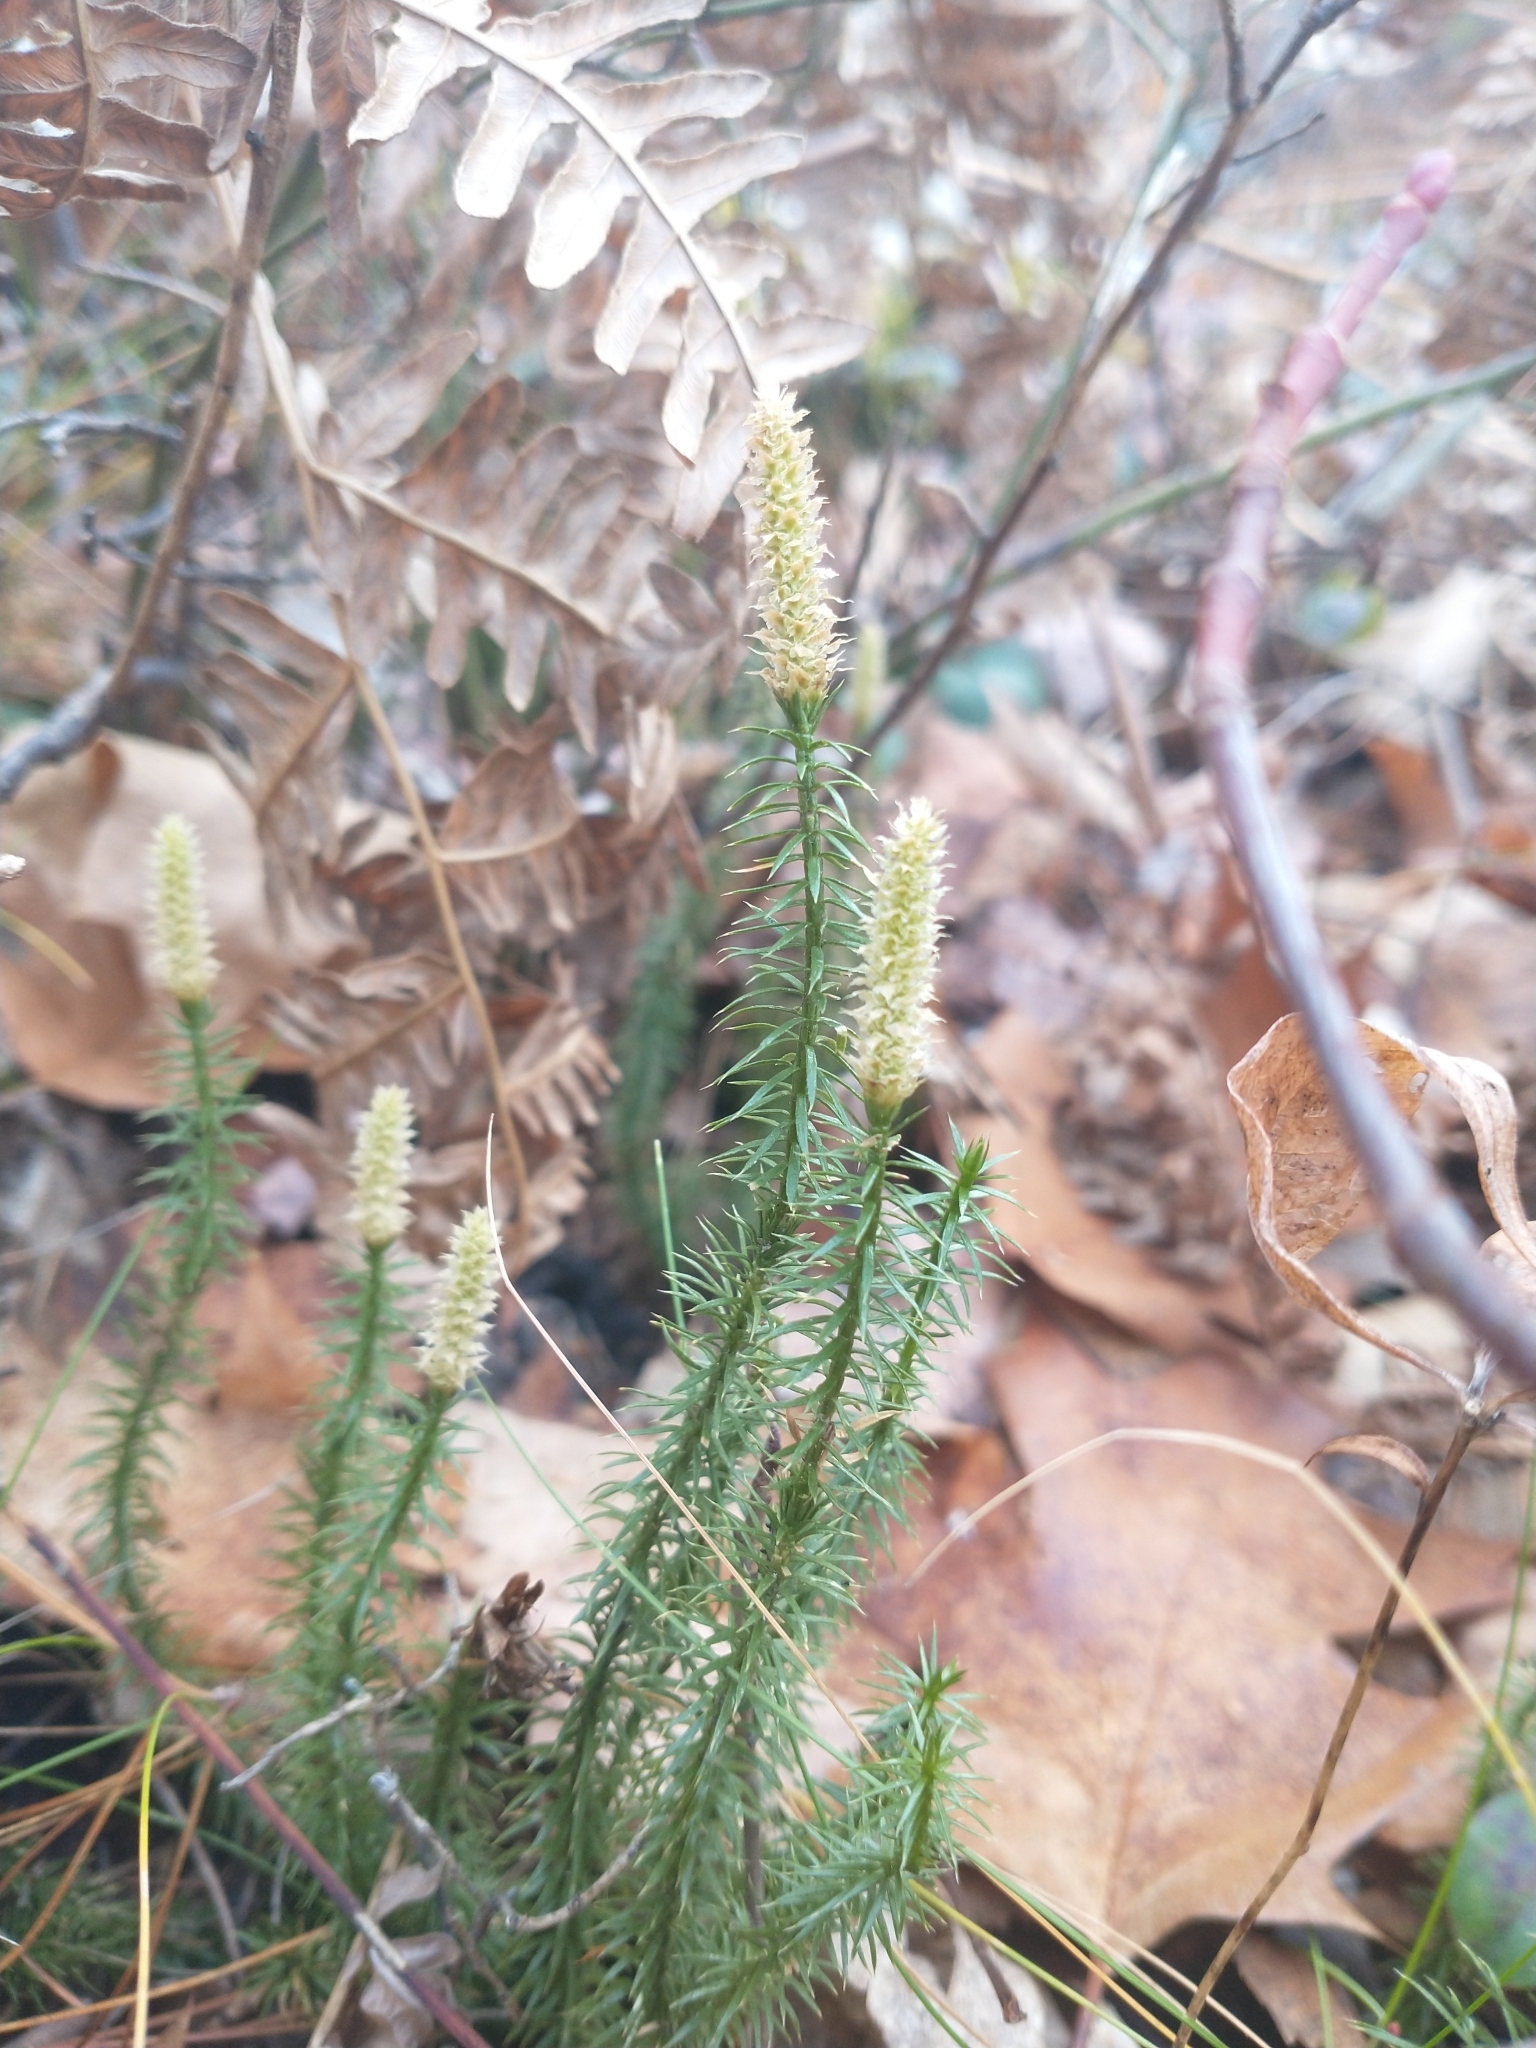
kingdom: Plantae
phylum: Tracheophyta
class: Lycopodiopsida
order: Lycopodiales
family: Lycopodiaceae
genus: Spinulum
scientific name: Spinulum annotinum
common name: Interrupted club-moss
